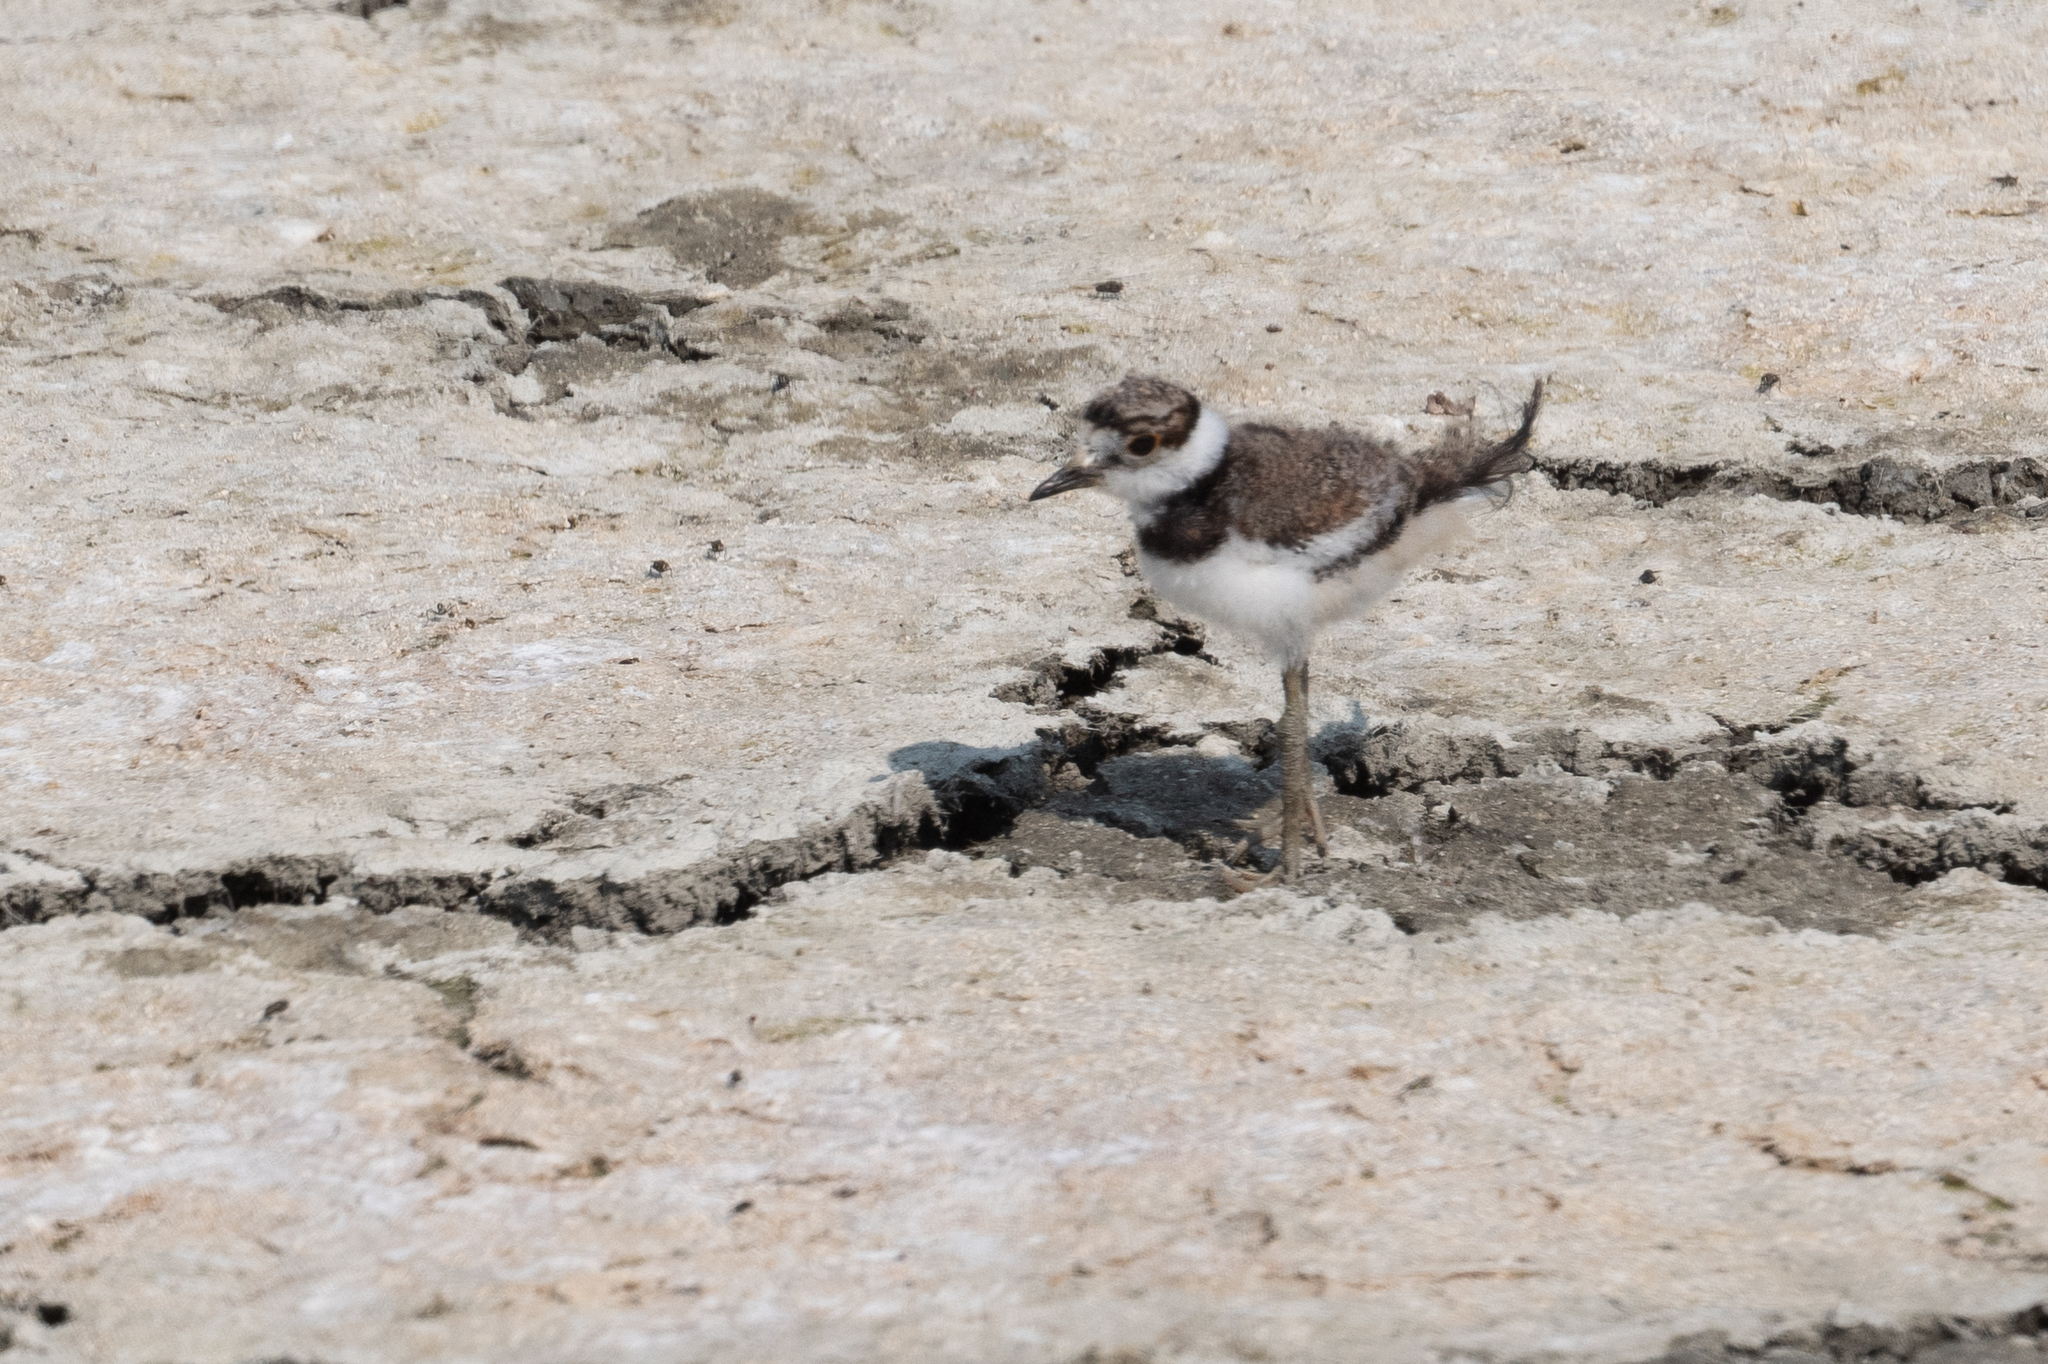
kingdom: Animalia
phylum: Chordata
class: Aves
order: Charadriiformes
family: Charadriidae
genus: Charadrius
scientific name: Charadrius vociferus
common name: Killdeer
